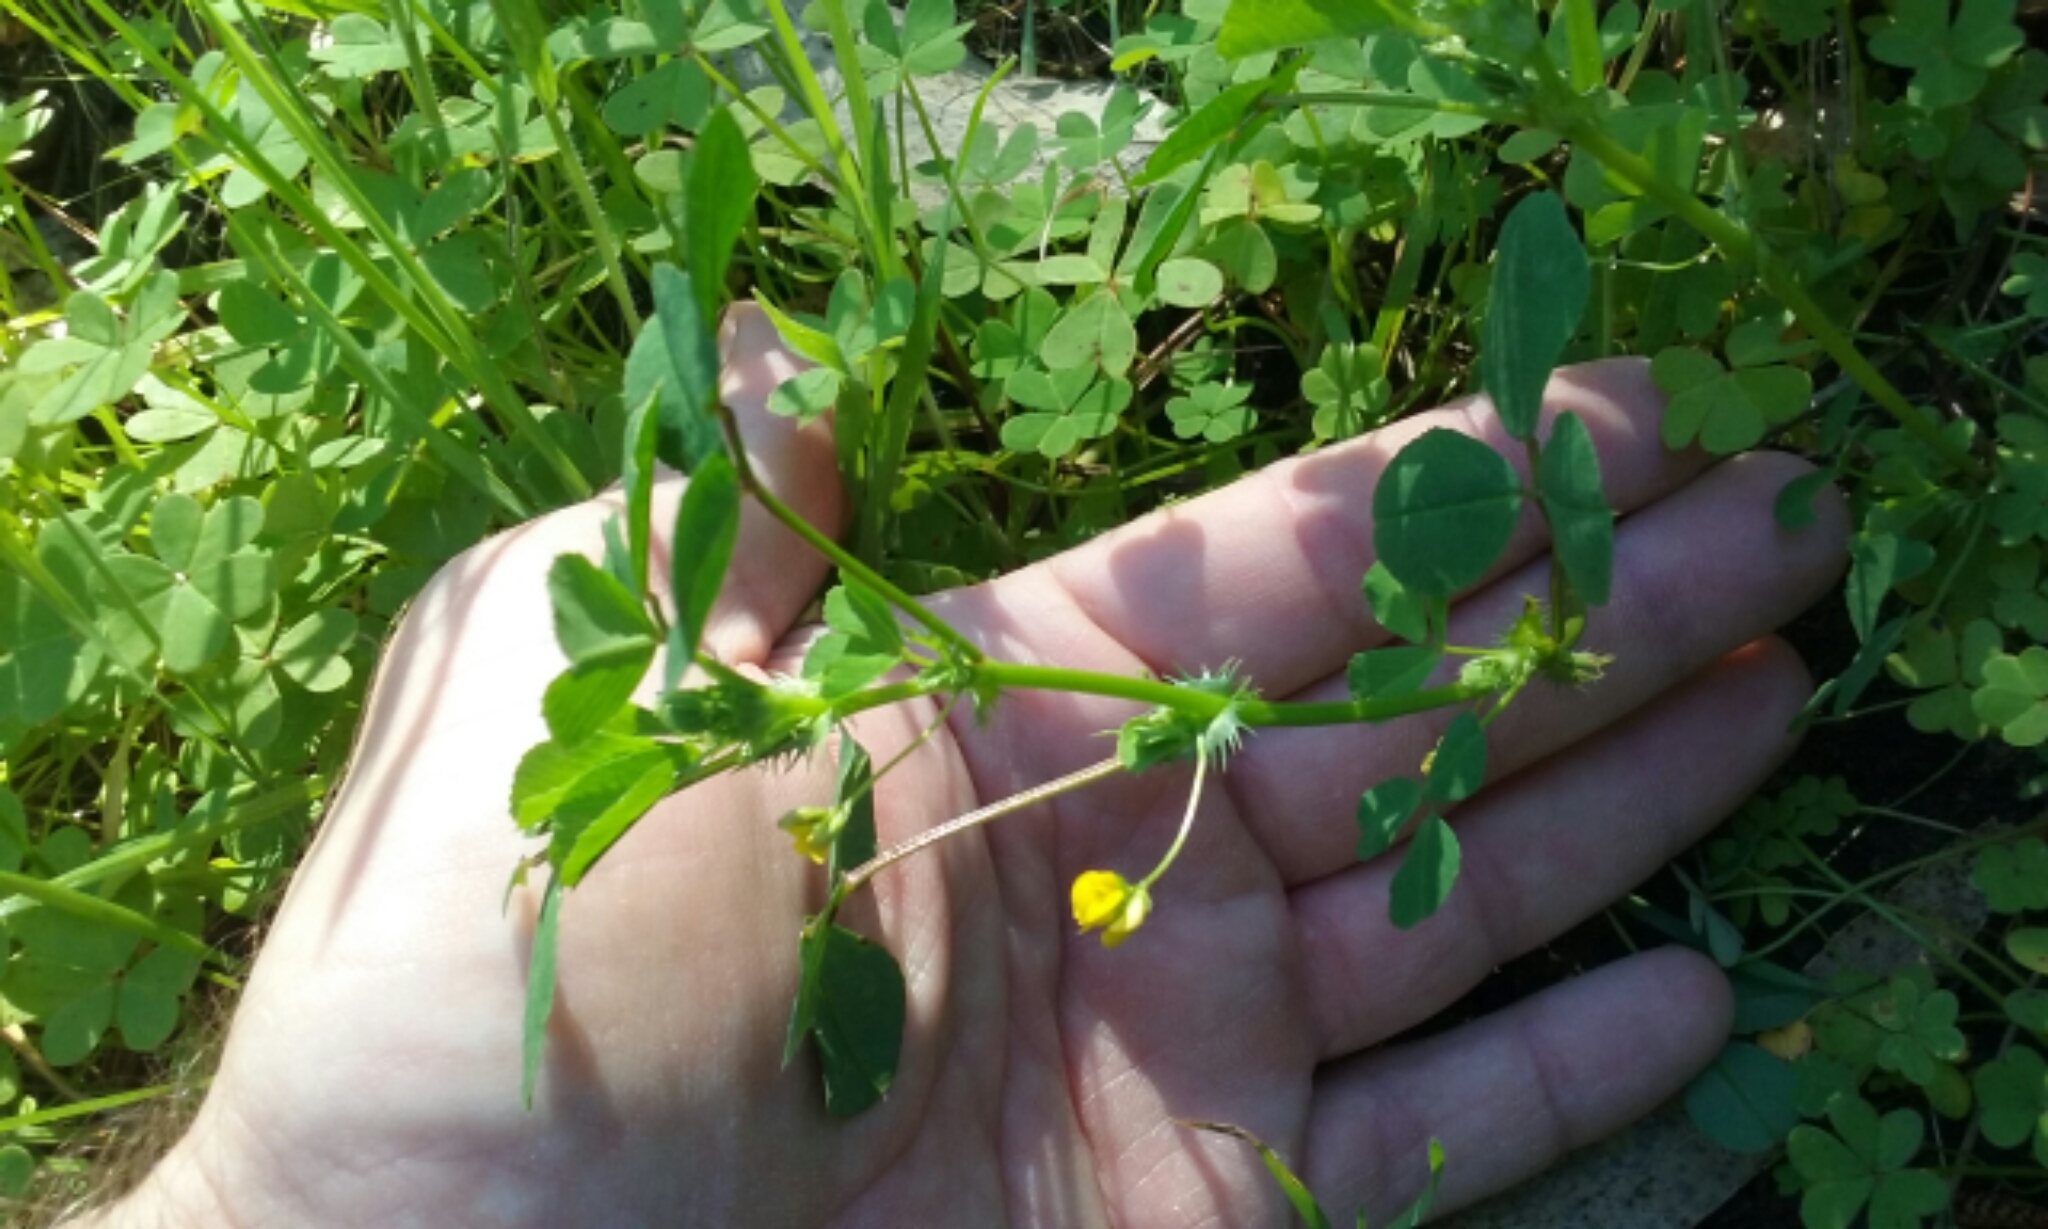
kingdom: Plantae
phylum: Tracheophyta
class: Magnoliopsida
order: Fabales
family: Fabaceae
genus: Medicago
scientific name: Medicago polymorpha
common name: Burclover
